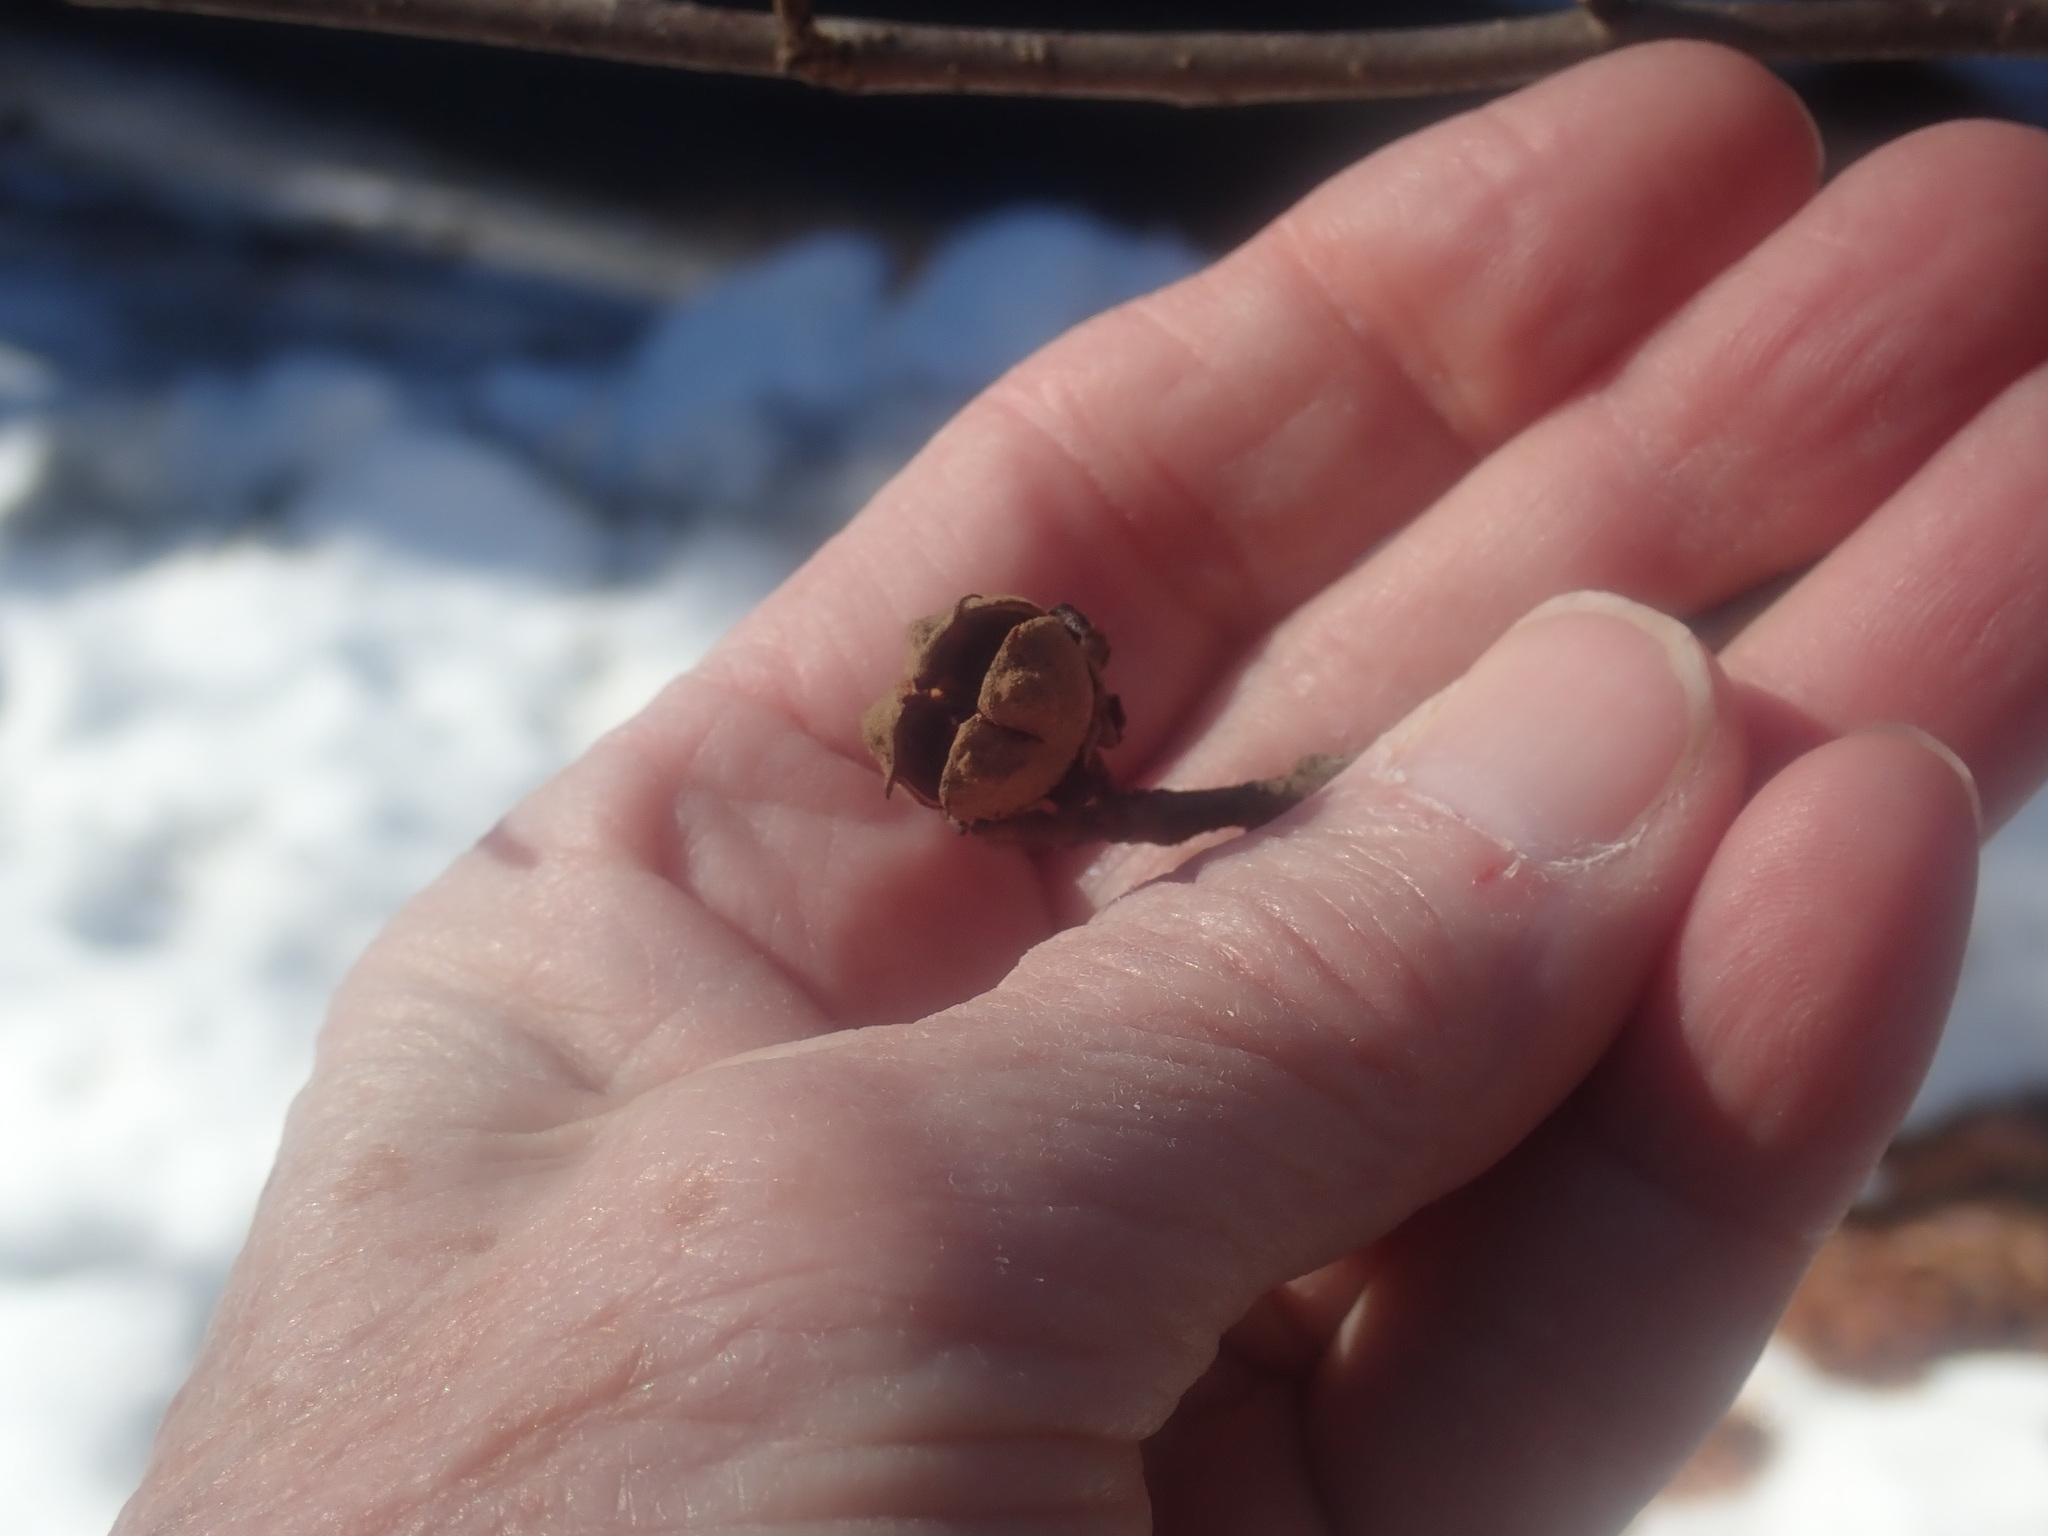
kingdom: Plantae
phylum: Tracheophyta
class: Magnoliopsida
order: Saxifragales
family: Hamamelidaceae
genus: Hamamelis
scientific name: Hamamelis virginiana
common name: Witch-hazel
